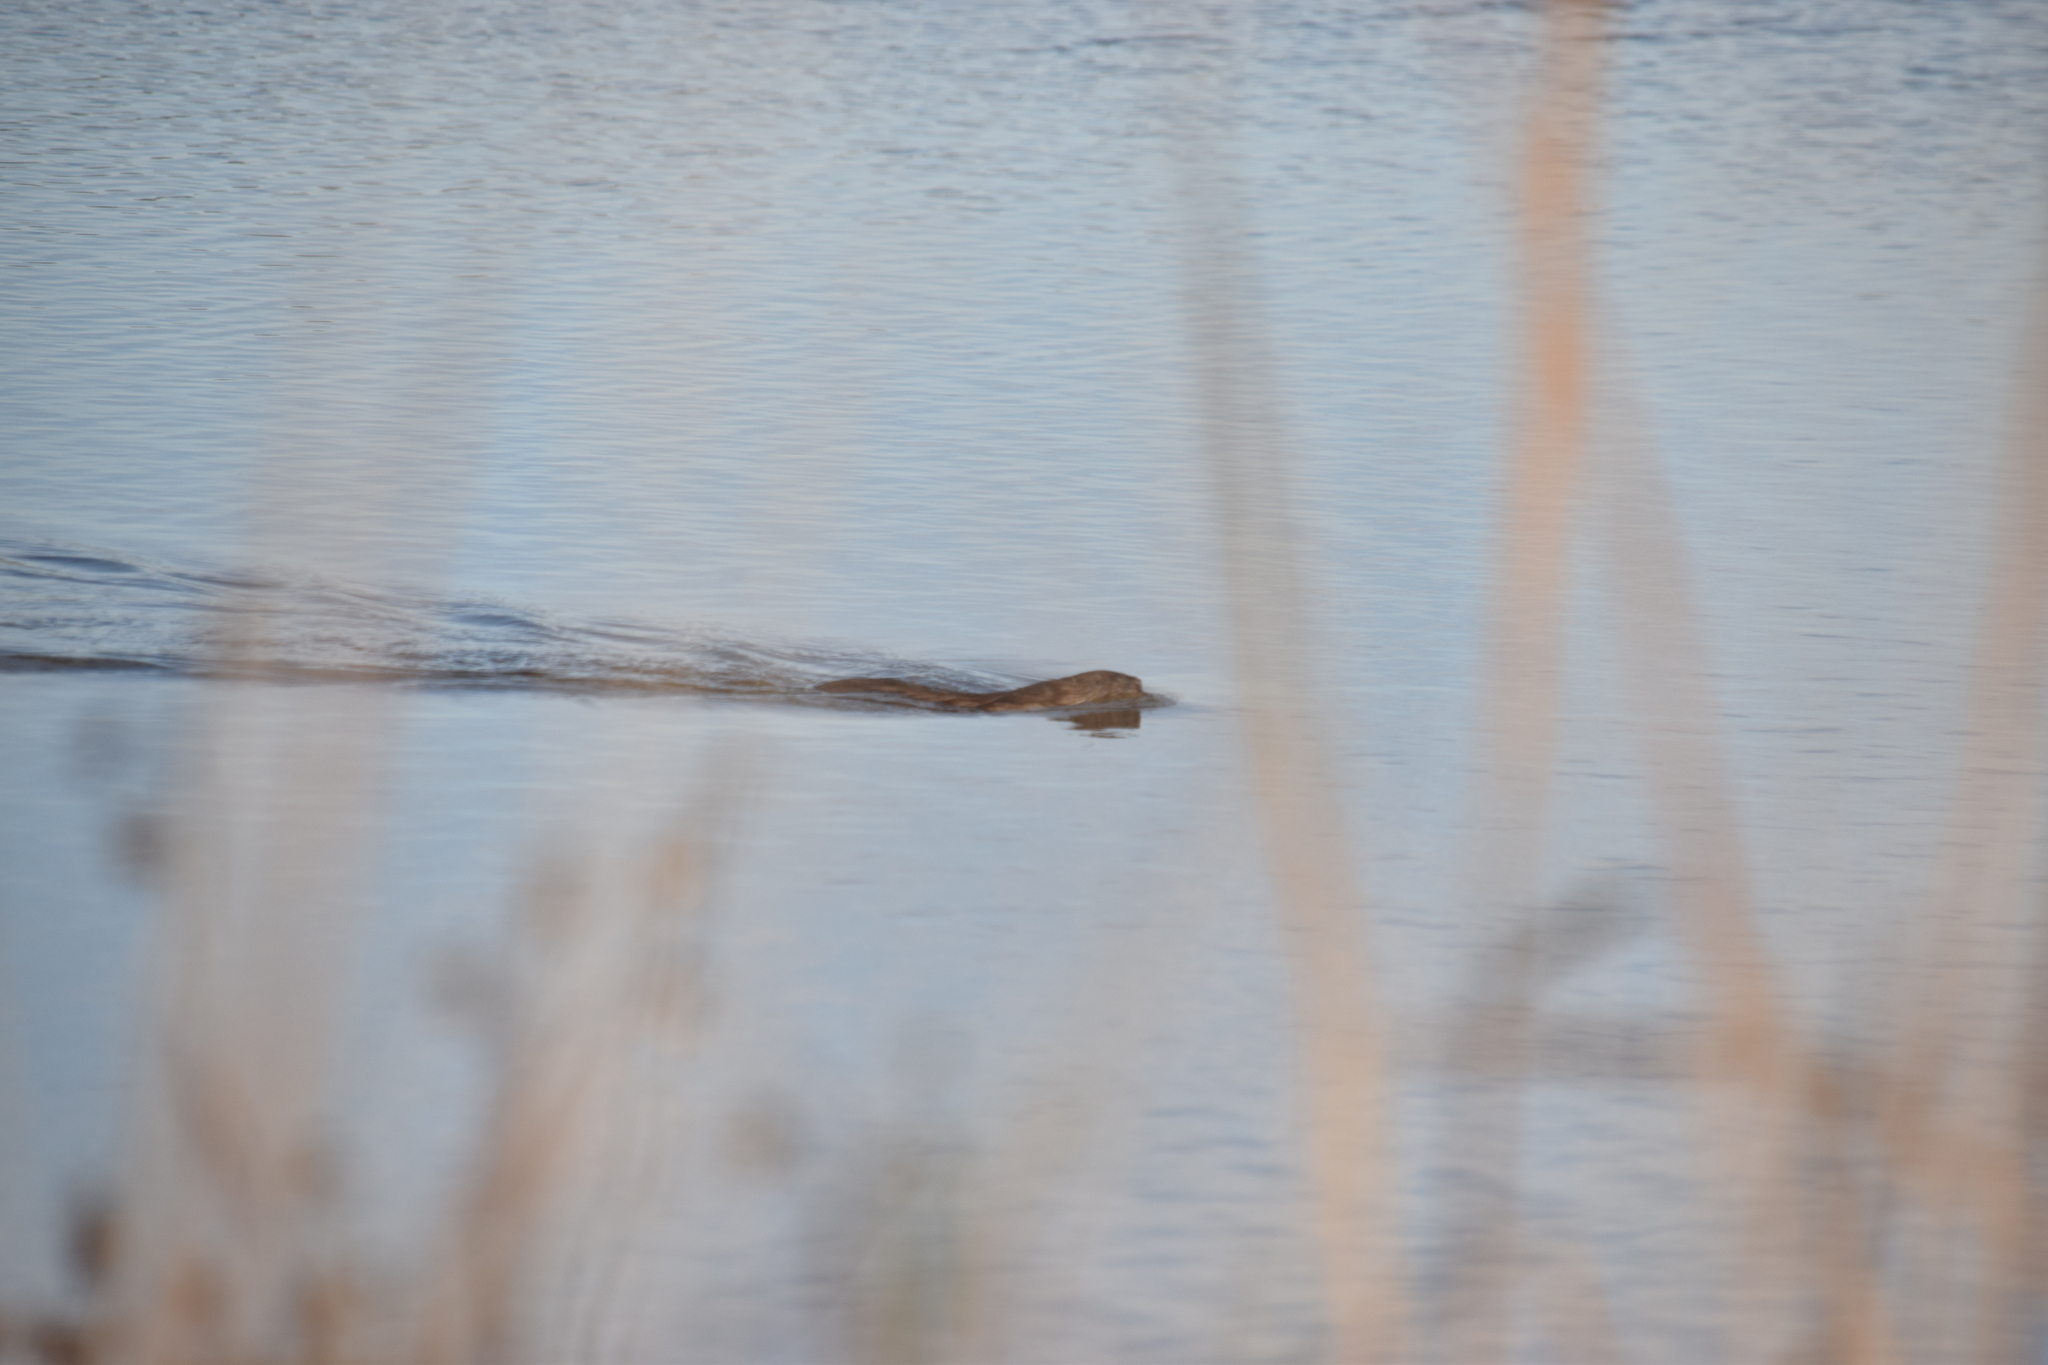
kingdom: Animalia
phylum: Chordata
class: Mammalia
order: Rodentia
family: Cricetidae
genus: Ondatra
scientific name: Ondatra zibethicus
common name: Muskrat
